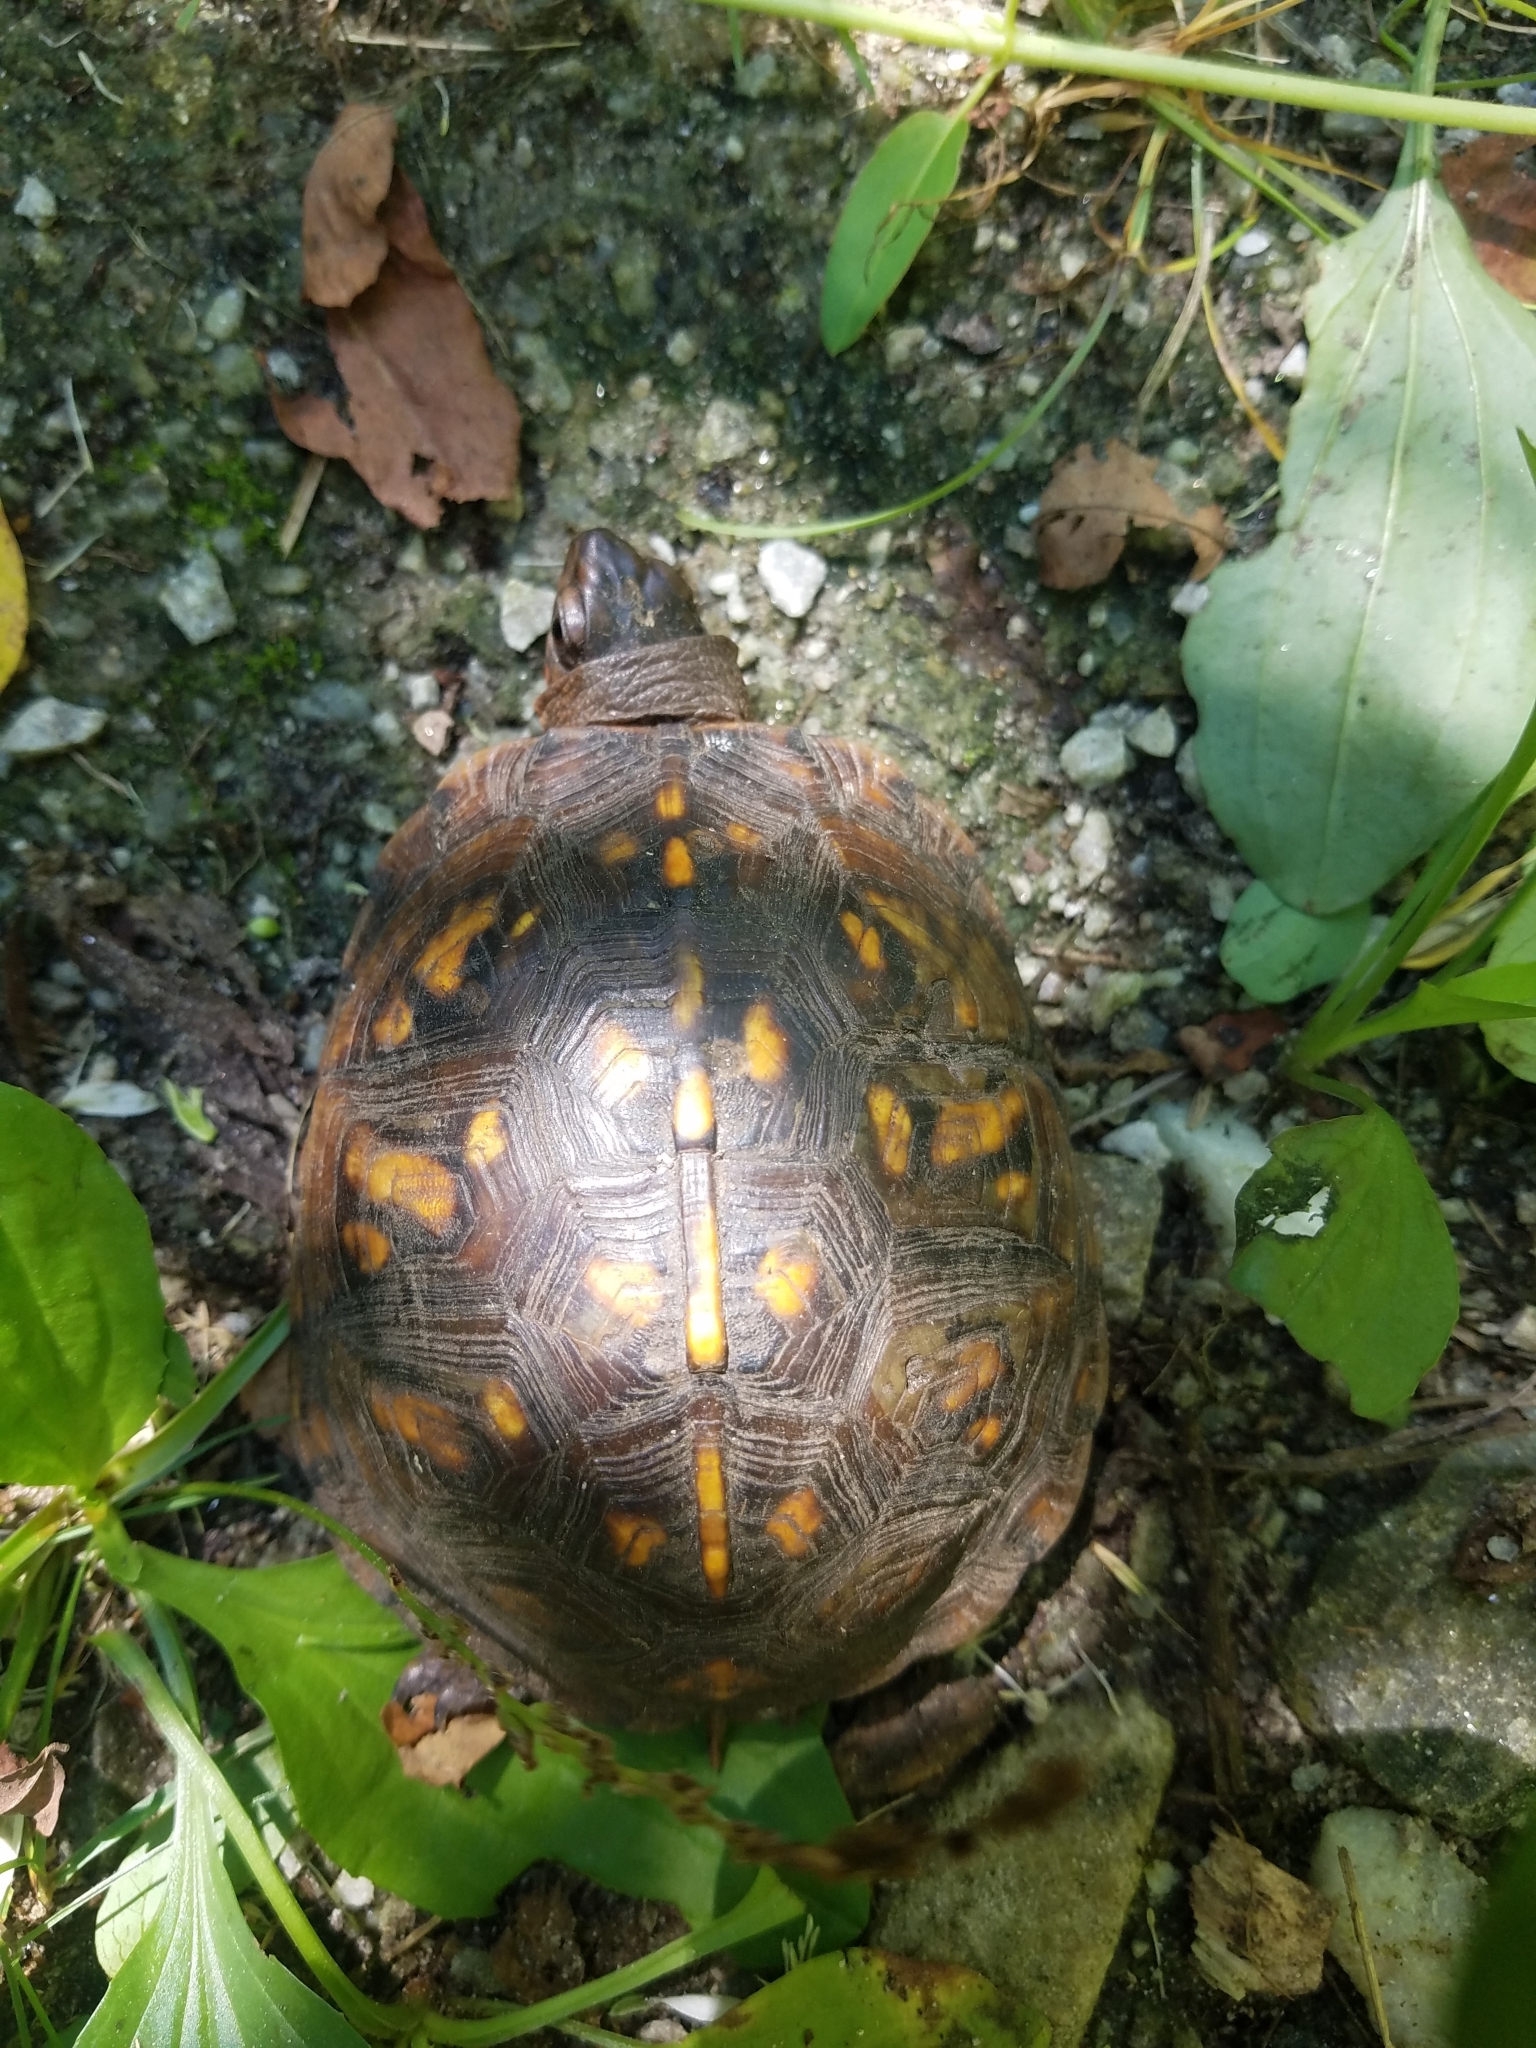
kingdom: Animalia
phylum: Chordata
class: Testudines
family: Emydidae
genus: Terrapene
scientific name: Terrapene carolina
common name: Common box turtle
